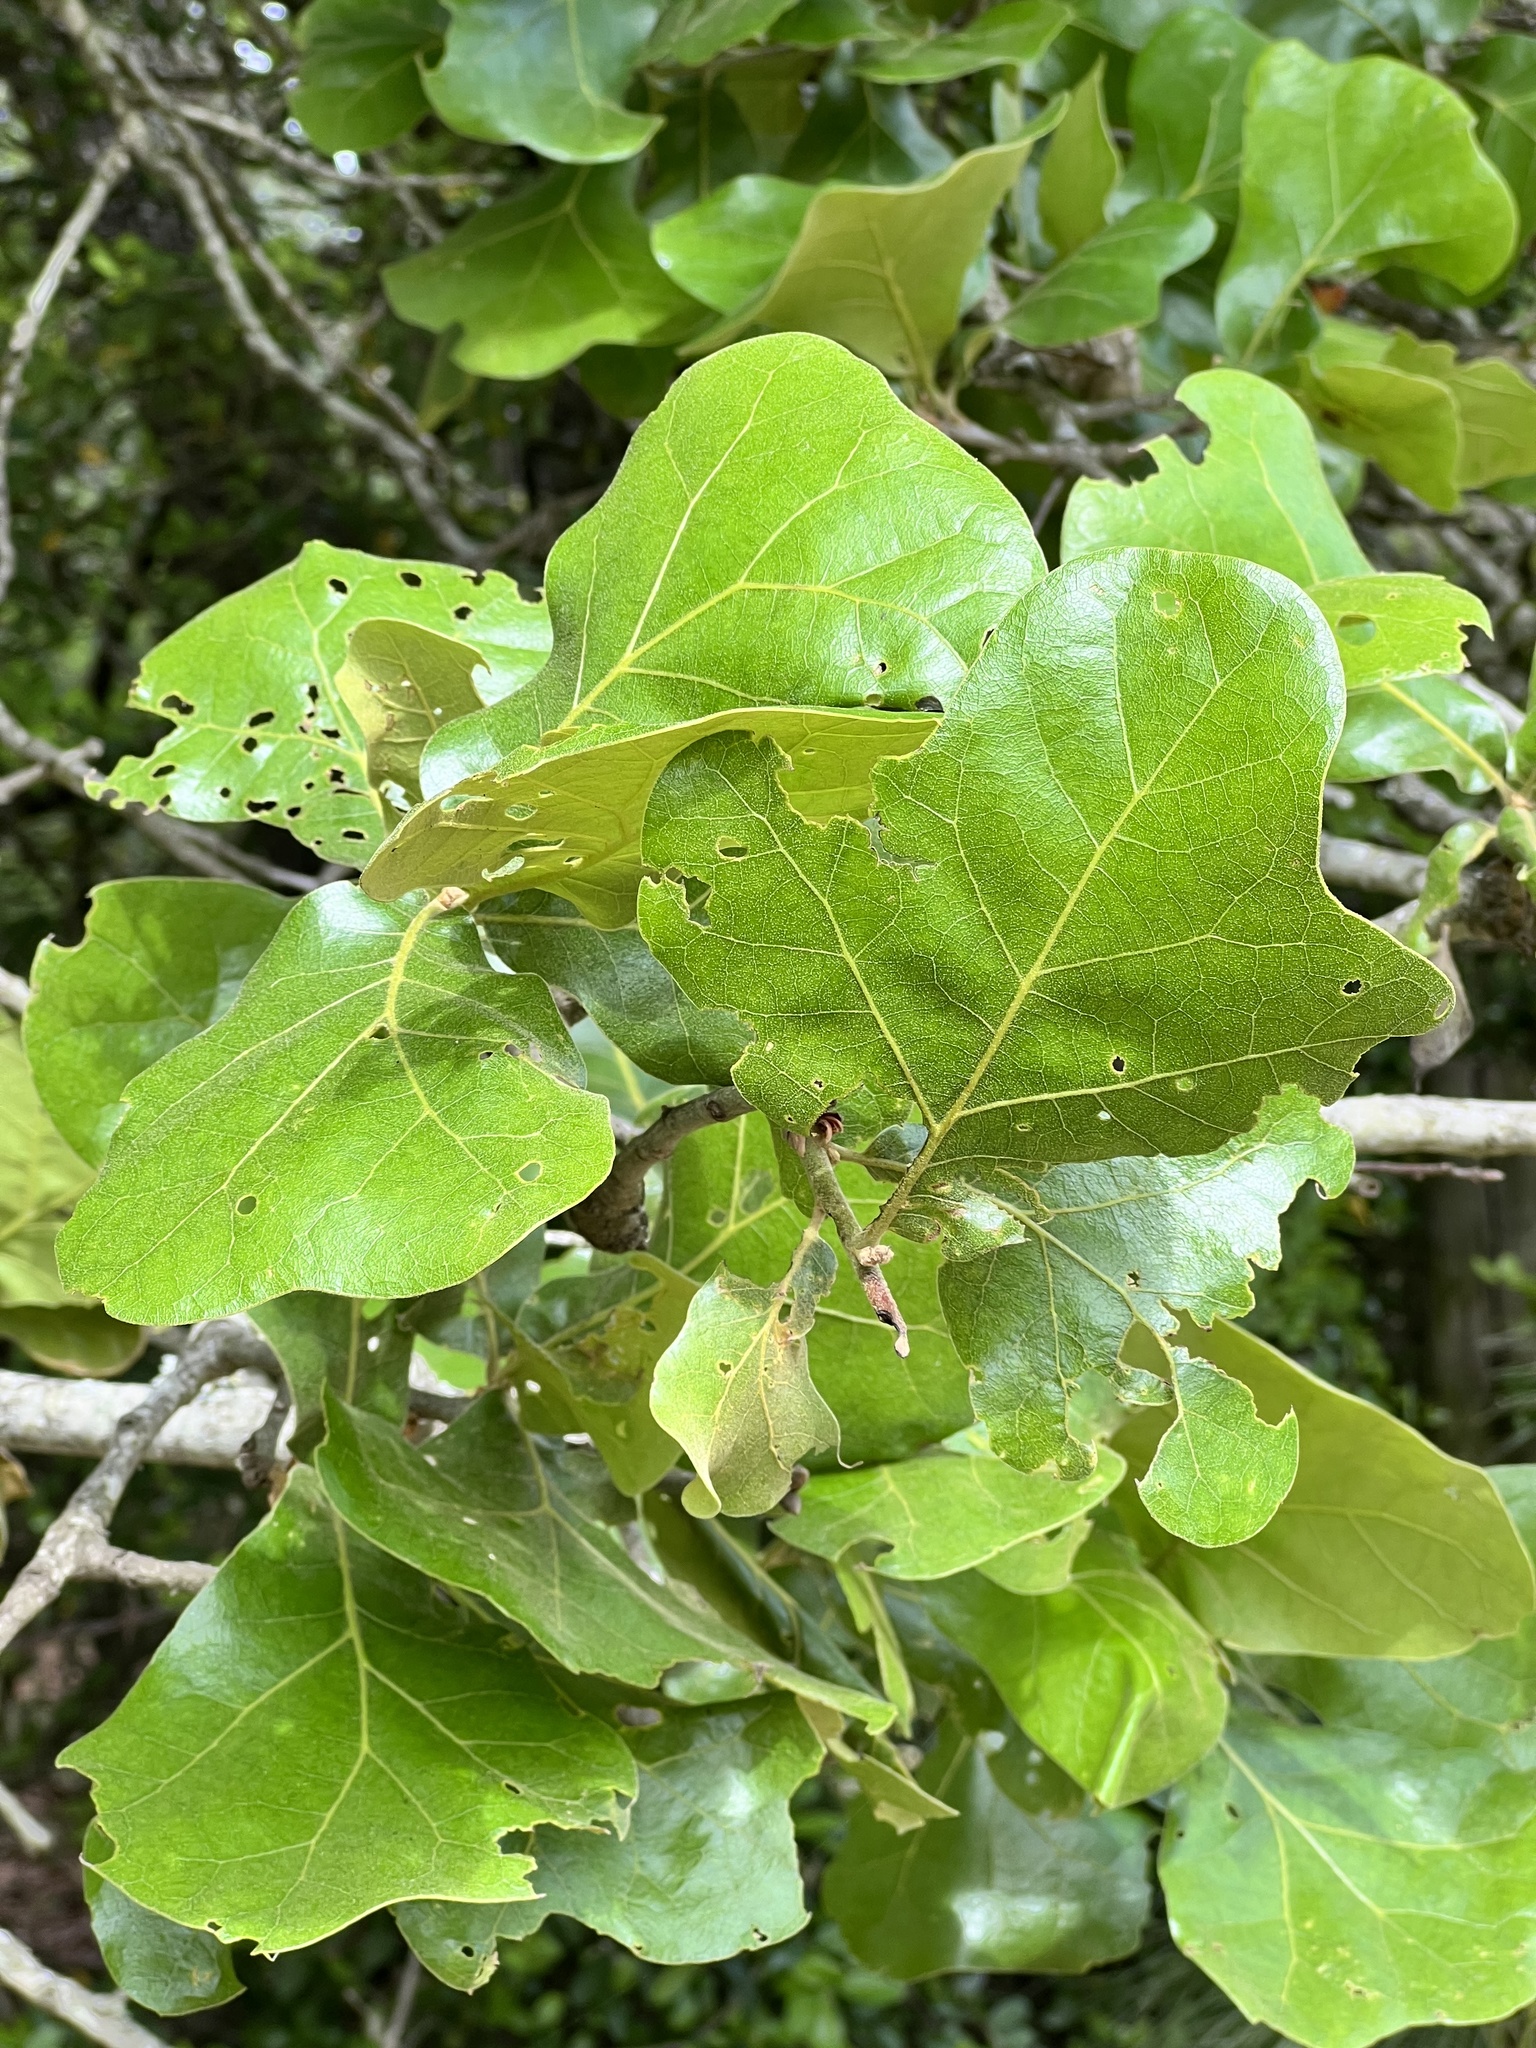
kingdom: Plantae
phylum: Tracheophyta
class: Magnoliopsida
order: Fagales
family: Fagaceae
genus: Quercus
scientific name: Quercus marilandica
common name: Blackjack oak
